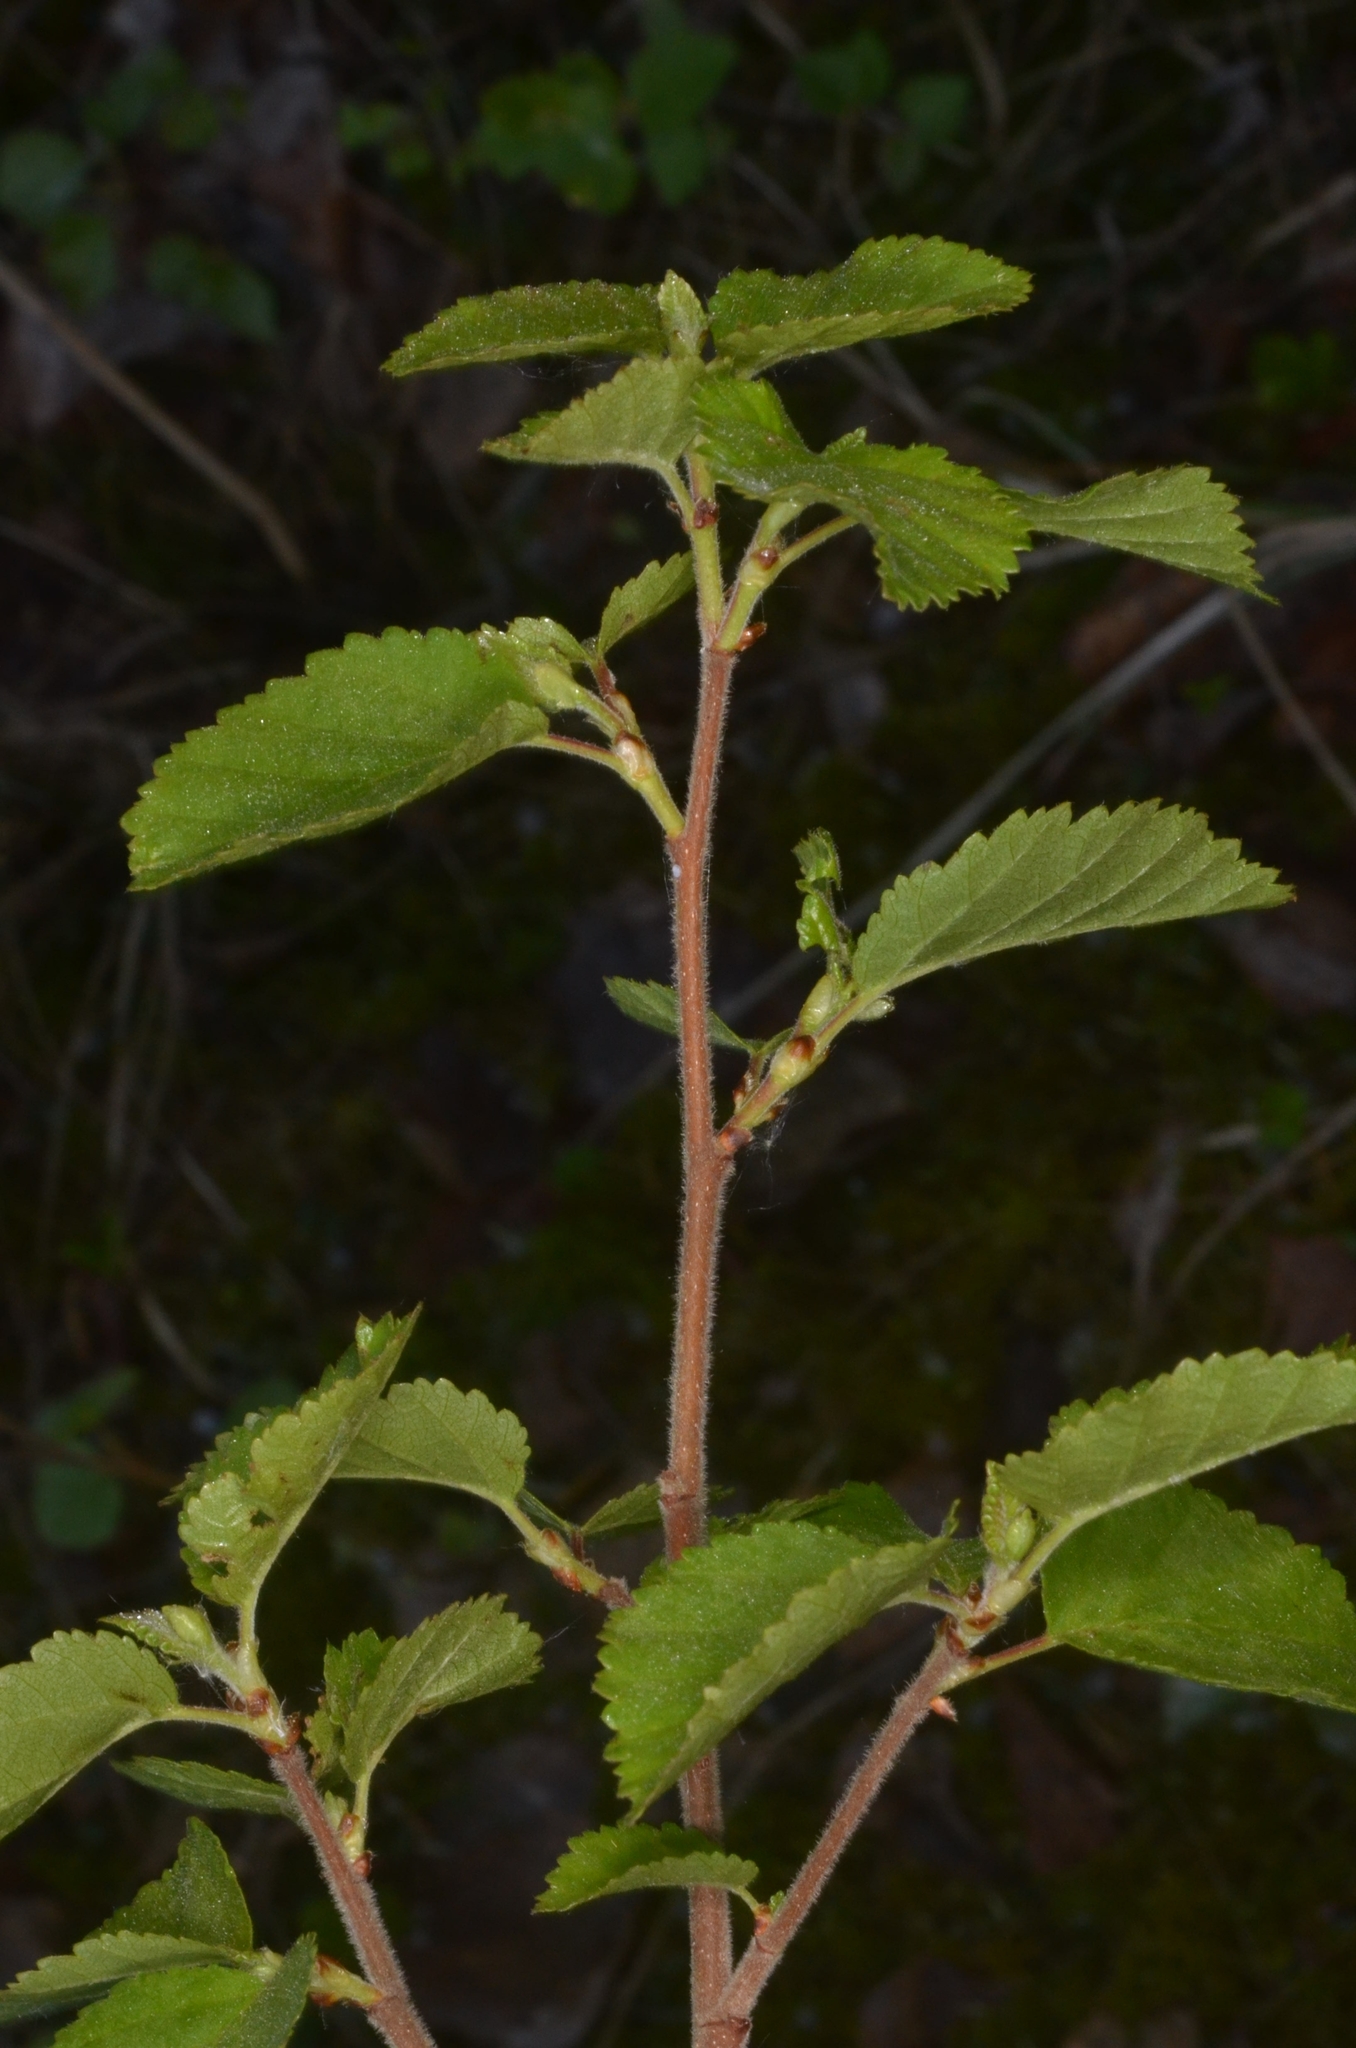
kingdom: Plantae
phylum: Tracheophyta
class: Magnoliopsida
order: Fagales
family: Betulaceae
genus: Betula
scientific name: Betula pubescens
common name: Downy birch
